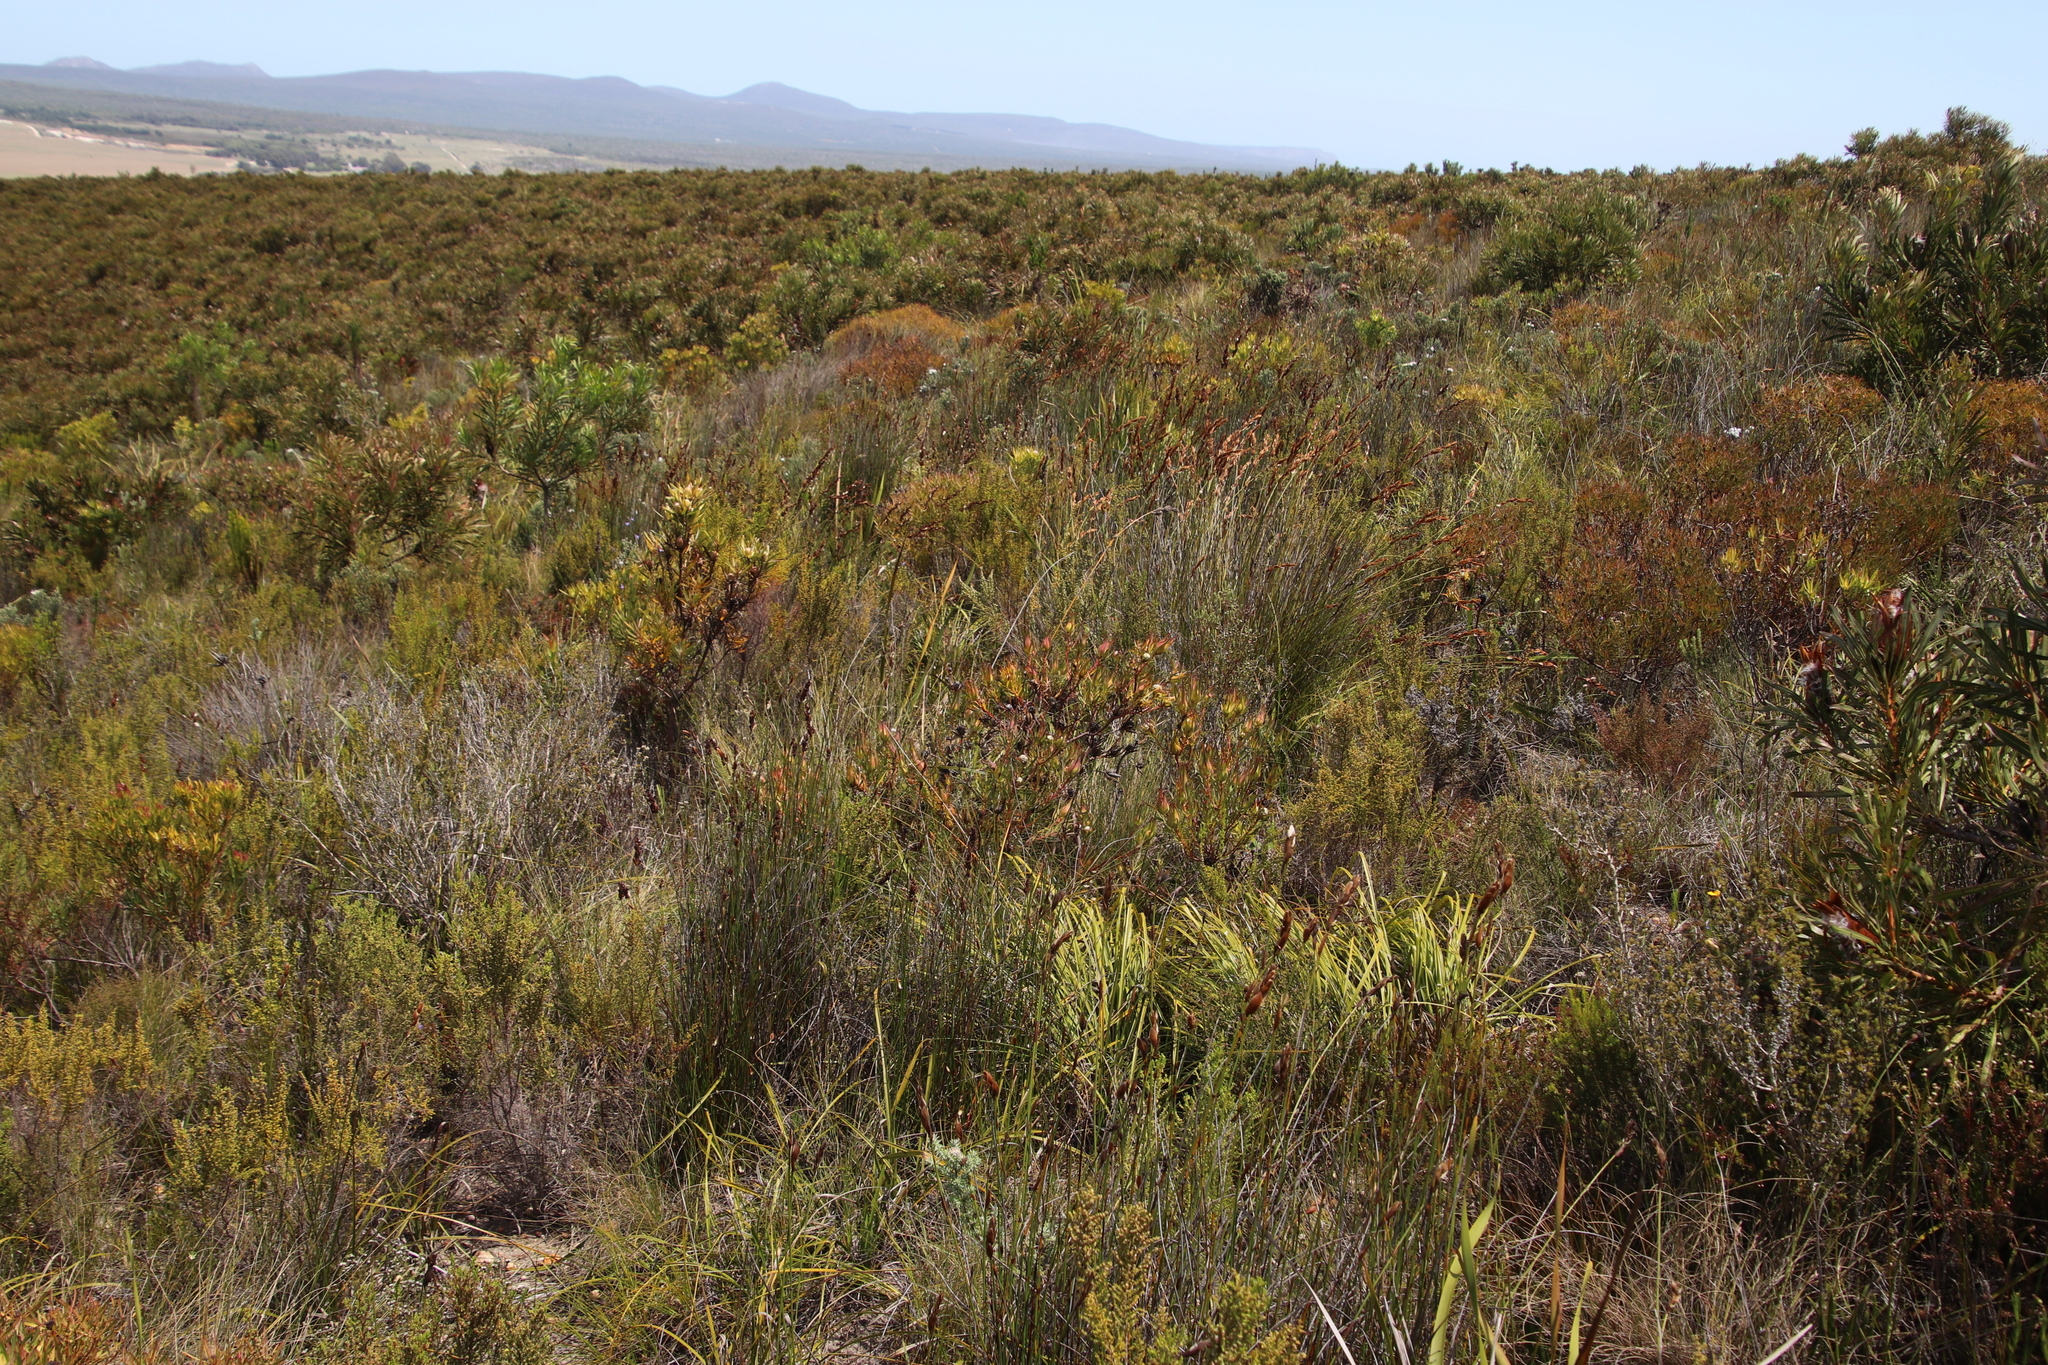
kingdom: Plantae
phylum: Tracheophyta
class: Magnoliopsida
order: Proteales
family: Proteaceae
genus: Leucadendron
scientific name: Leucadendron salignum
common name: Common sunshine conebush
